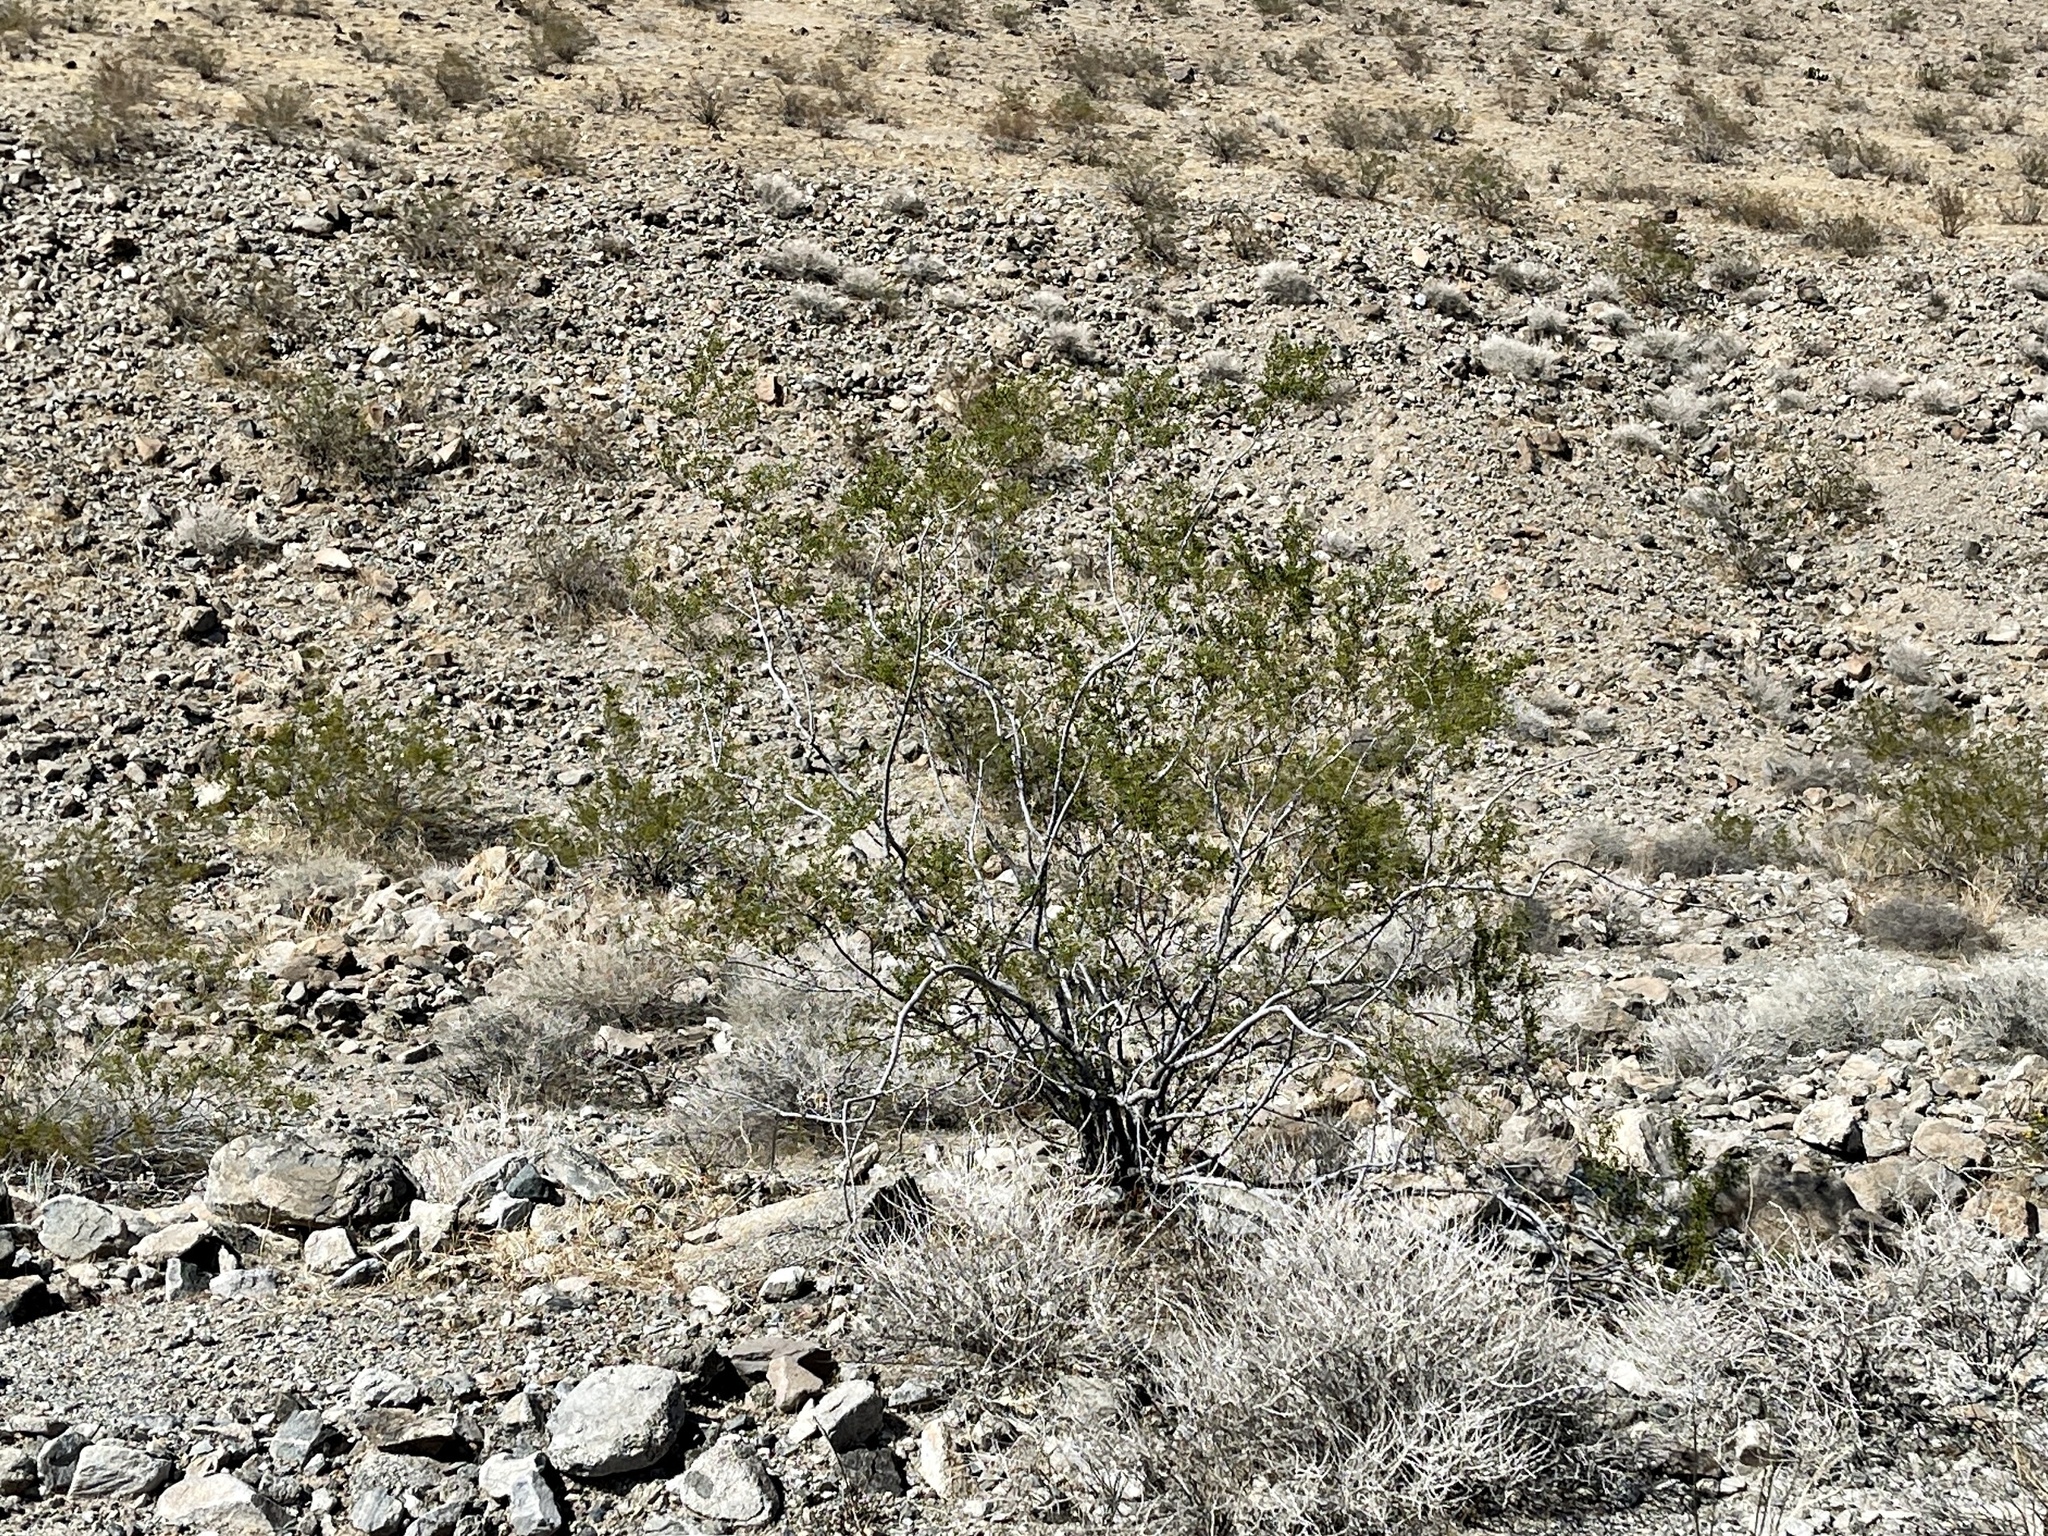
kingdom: Plantae
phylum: Tracheophyta
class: Magnoliopsida
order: Zygophyllales
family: Zygophyllaceae
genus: Larrea
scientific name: Larrea tridentata
